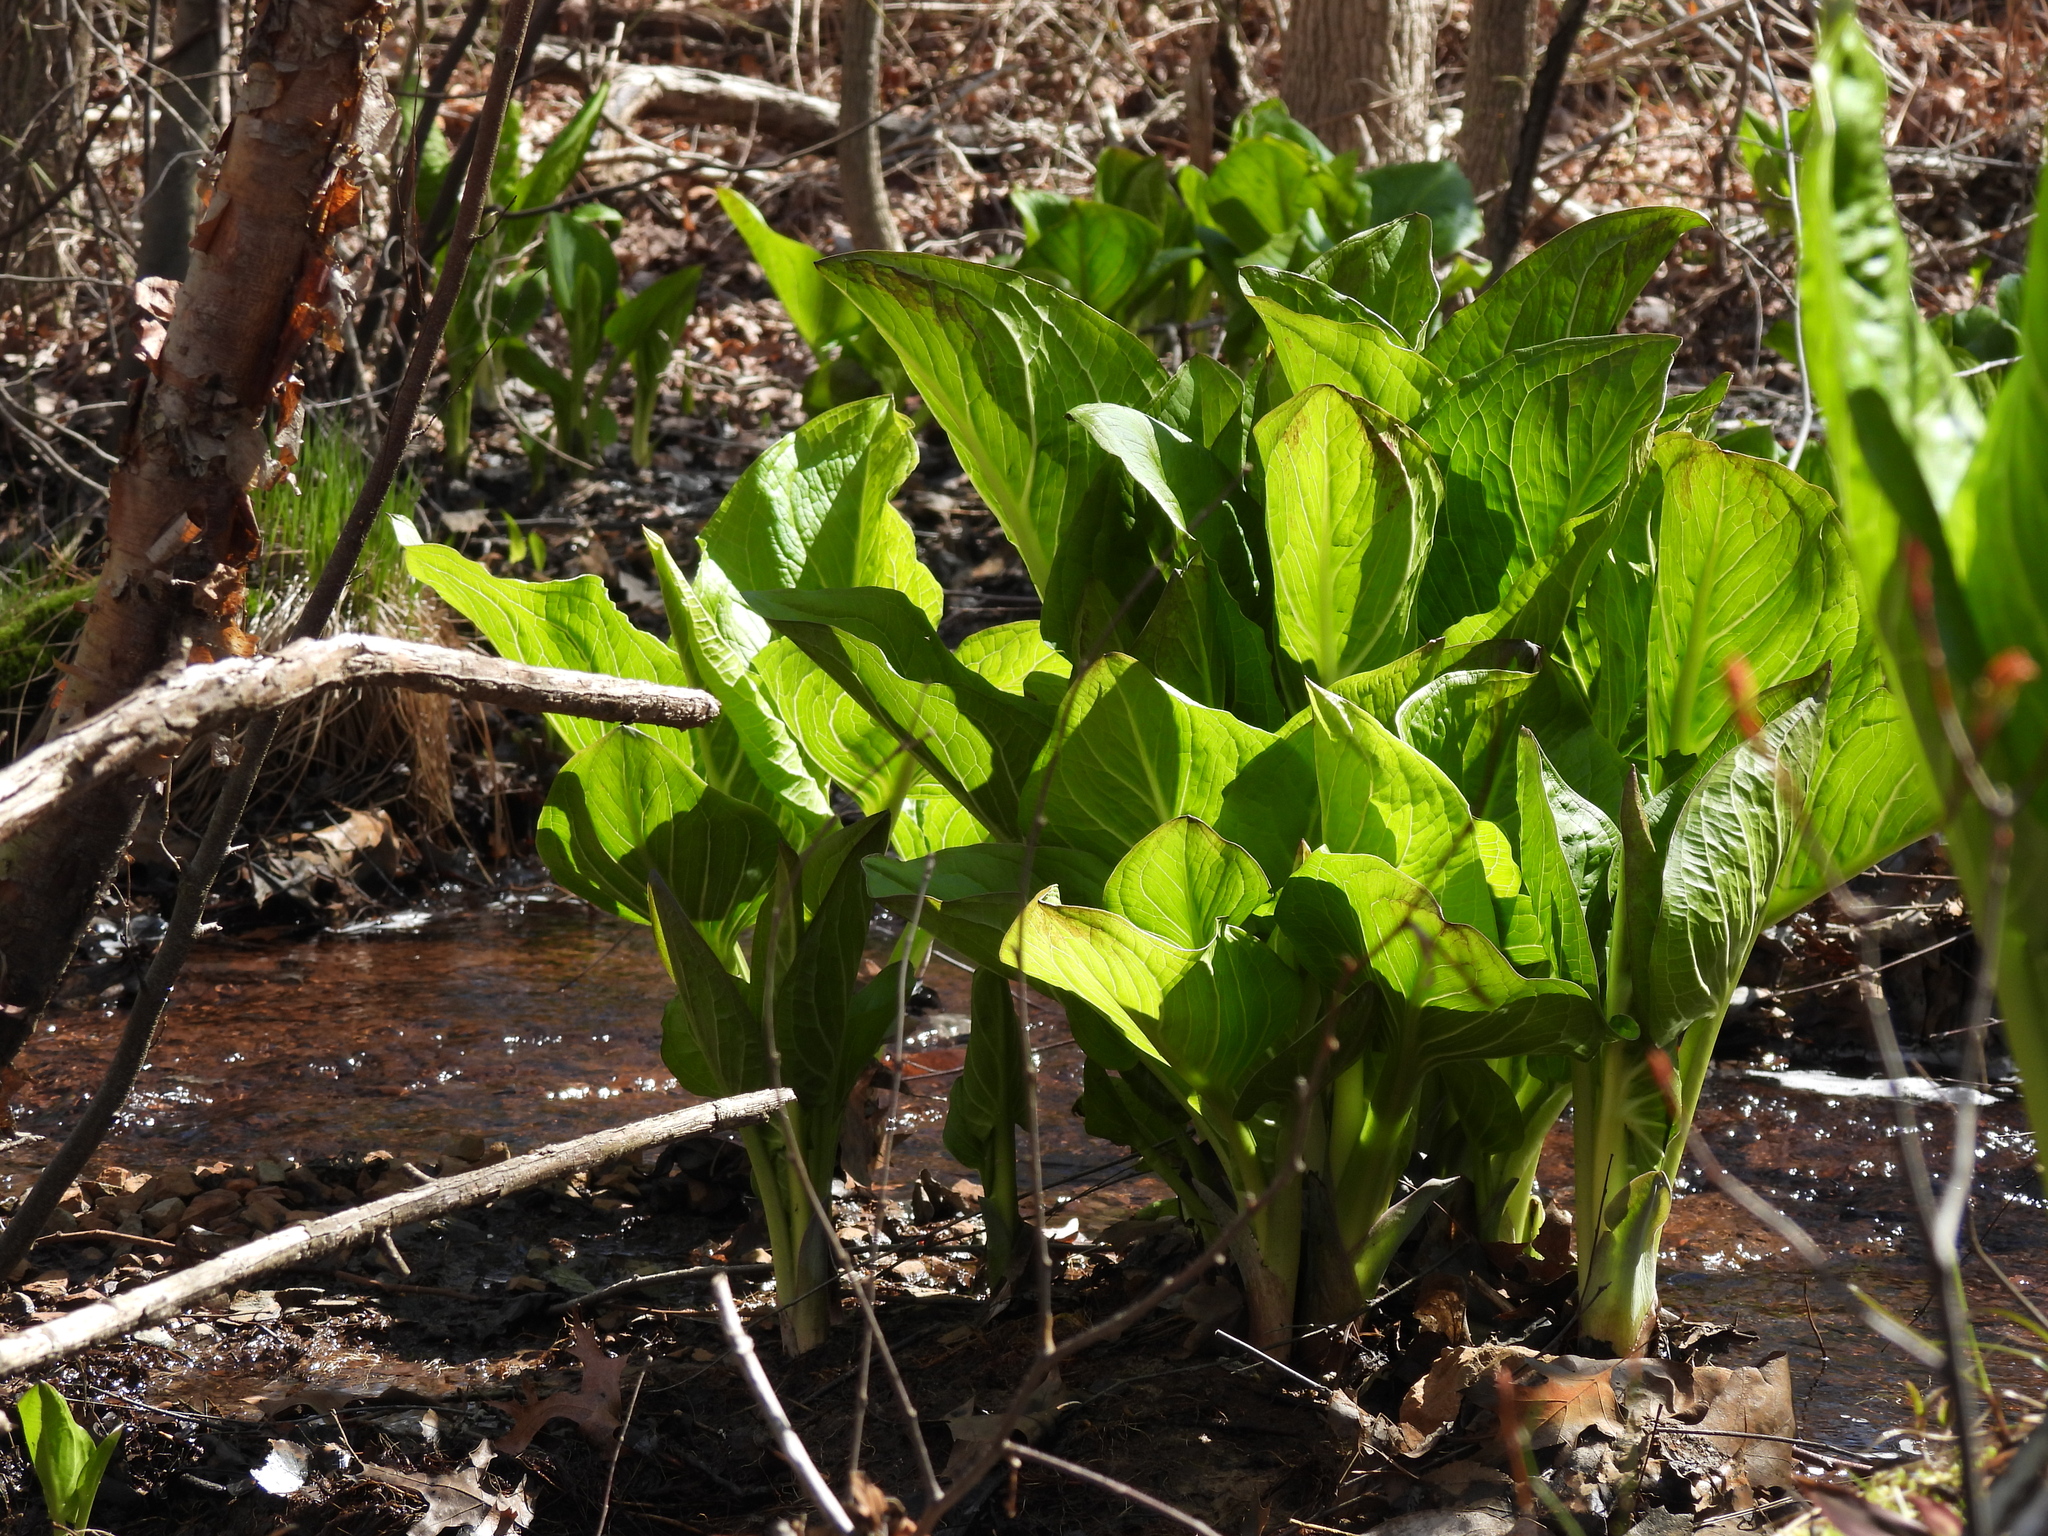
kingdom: Plantae
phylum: Tracheophyta
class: Liliopsida
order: Alismatales
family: Araceae
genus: Symplocarpus
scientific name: Symplocarpus foetidus
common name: Eastern skunk cabbage
